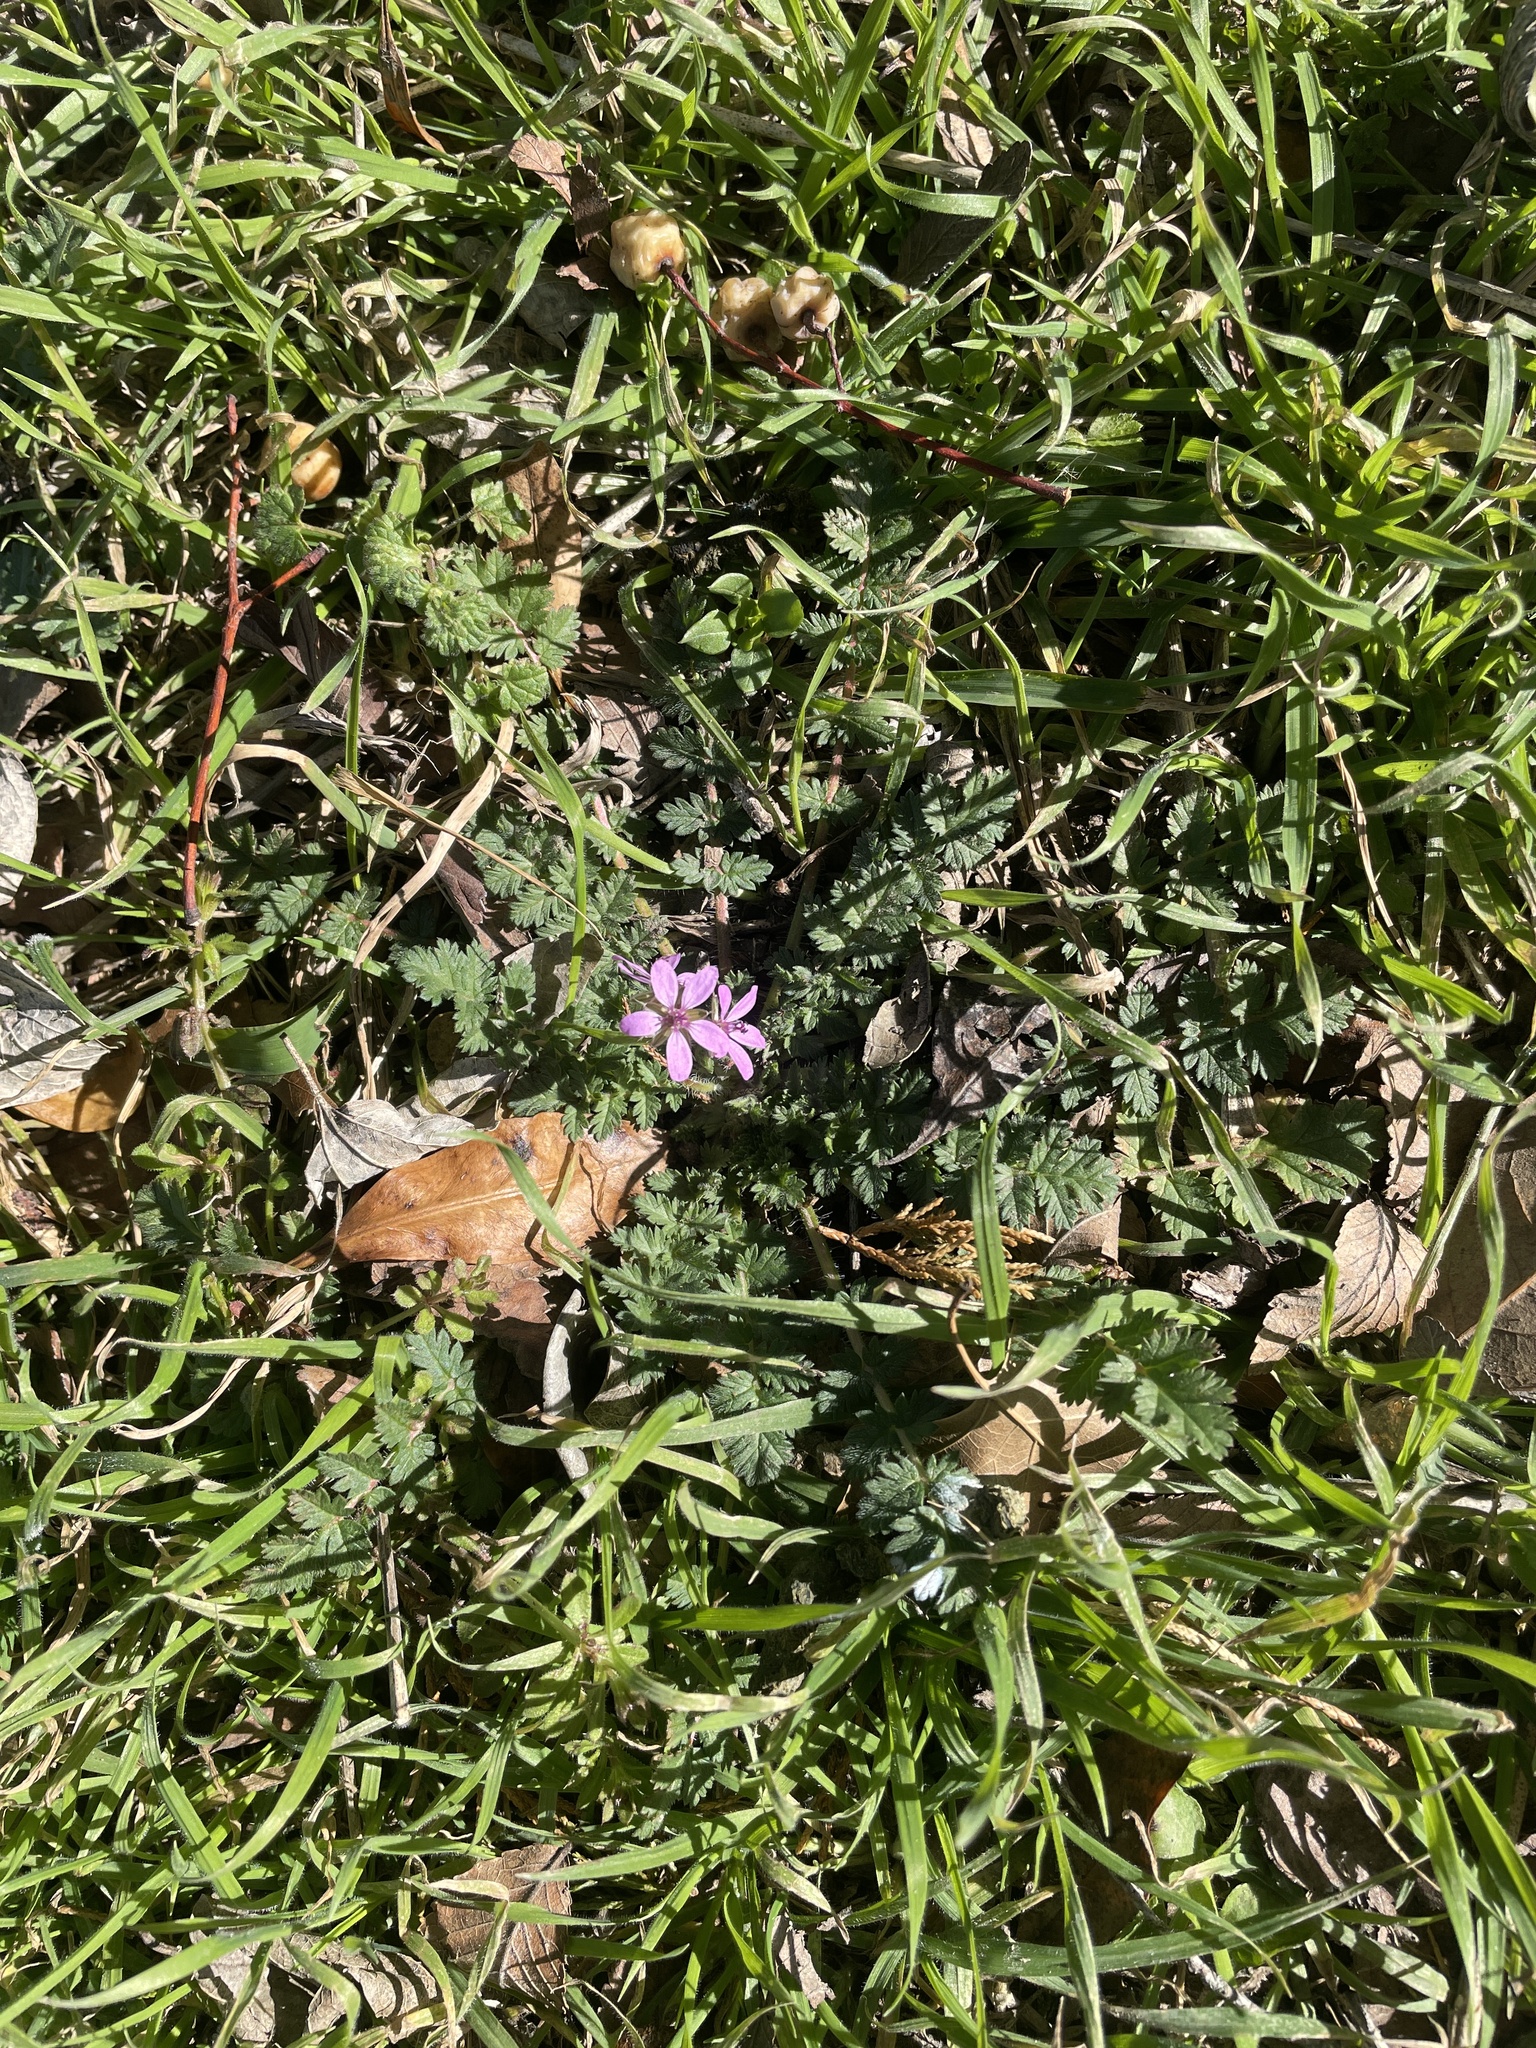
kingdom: Plantae
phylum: Tracheophyta
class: Magnoliopsida
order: Geraniales
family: Geraniaceae
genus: Erodium
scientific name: Erodium cicutarium
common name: Common stork's-bill
